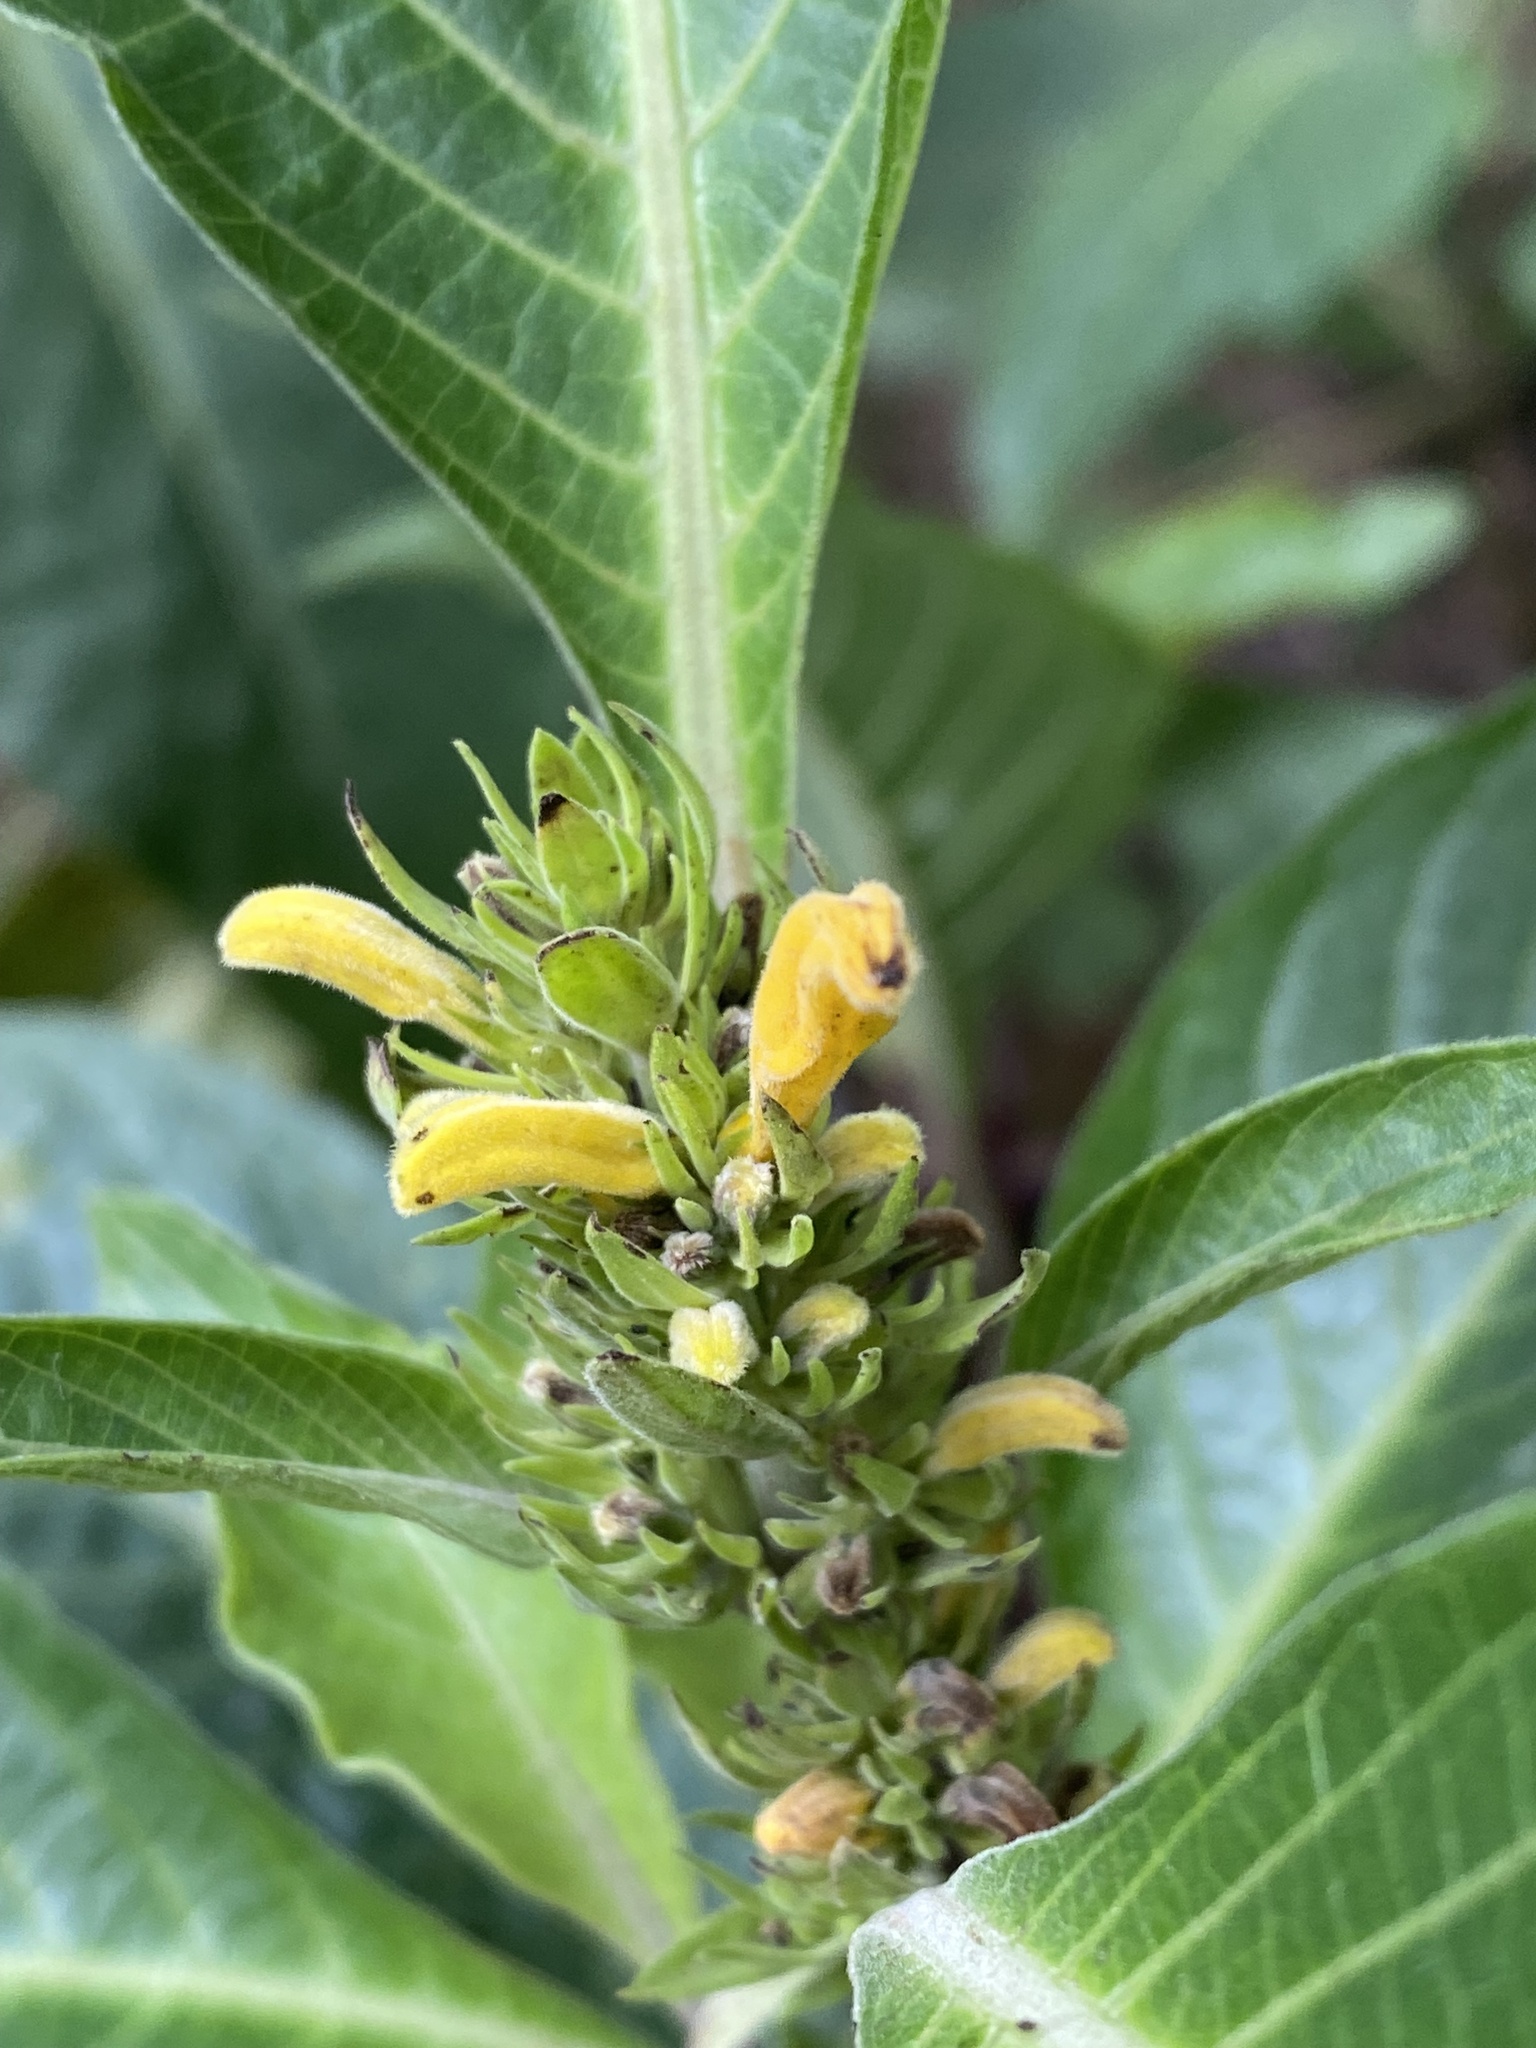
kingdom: Plantae
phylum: Tracheophyta
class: Magnoliopsida
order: Lamiales
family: Acanthaceae
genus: Justicia
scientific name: Justicia aurea
